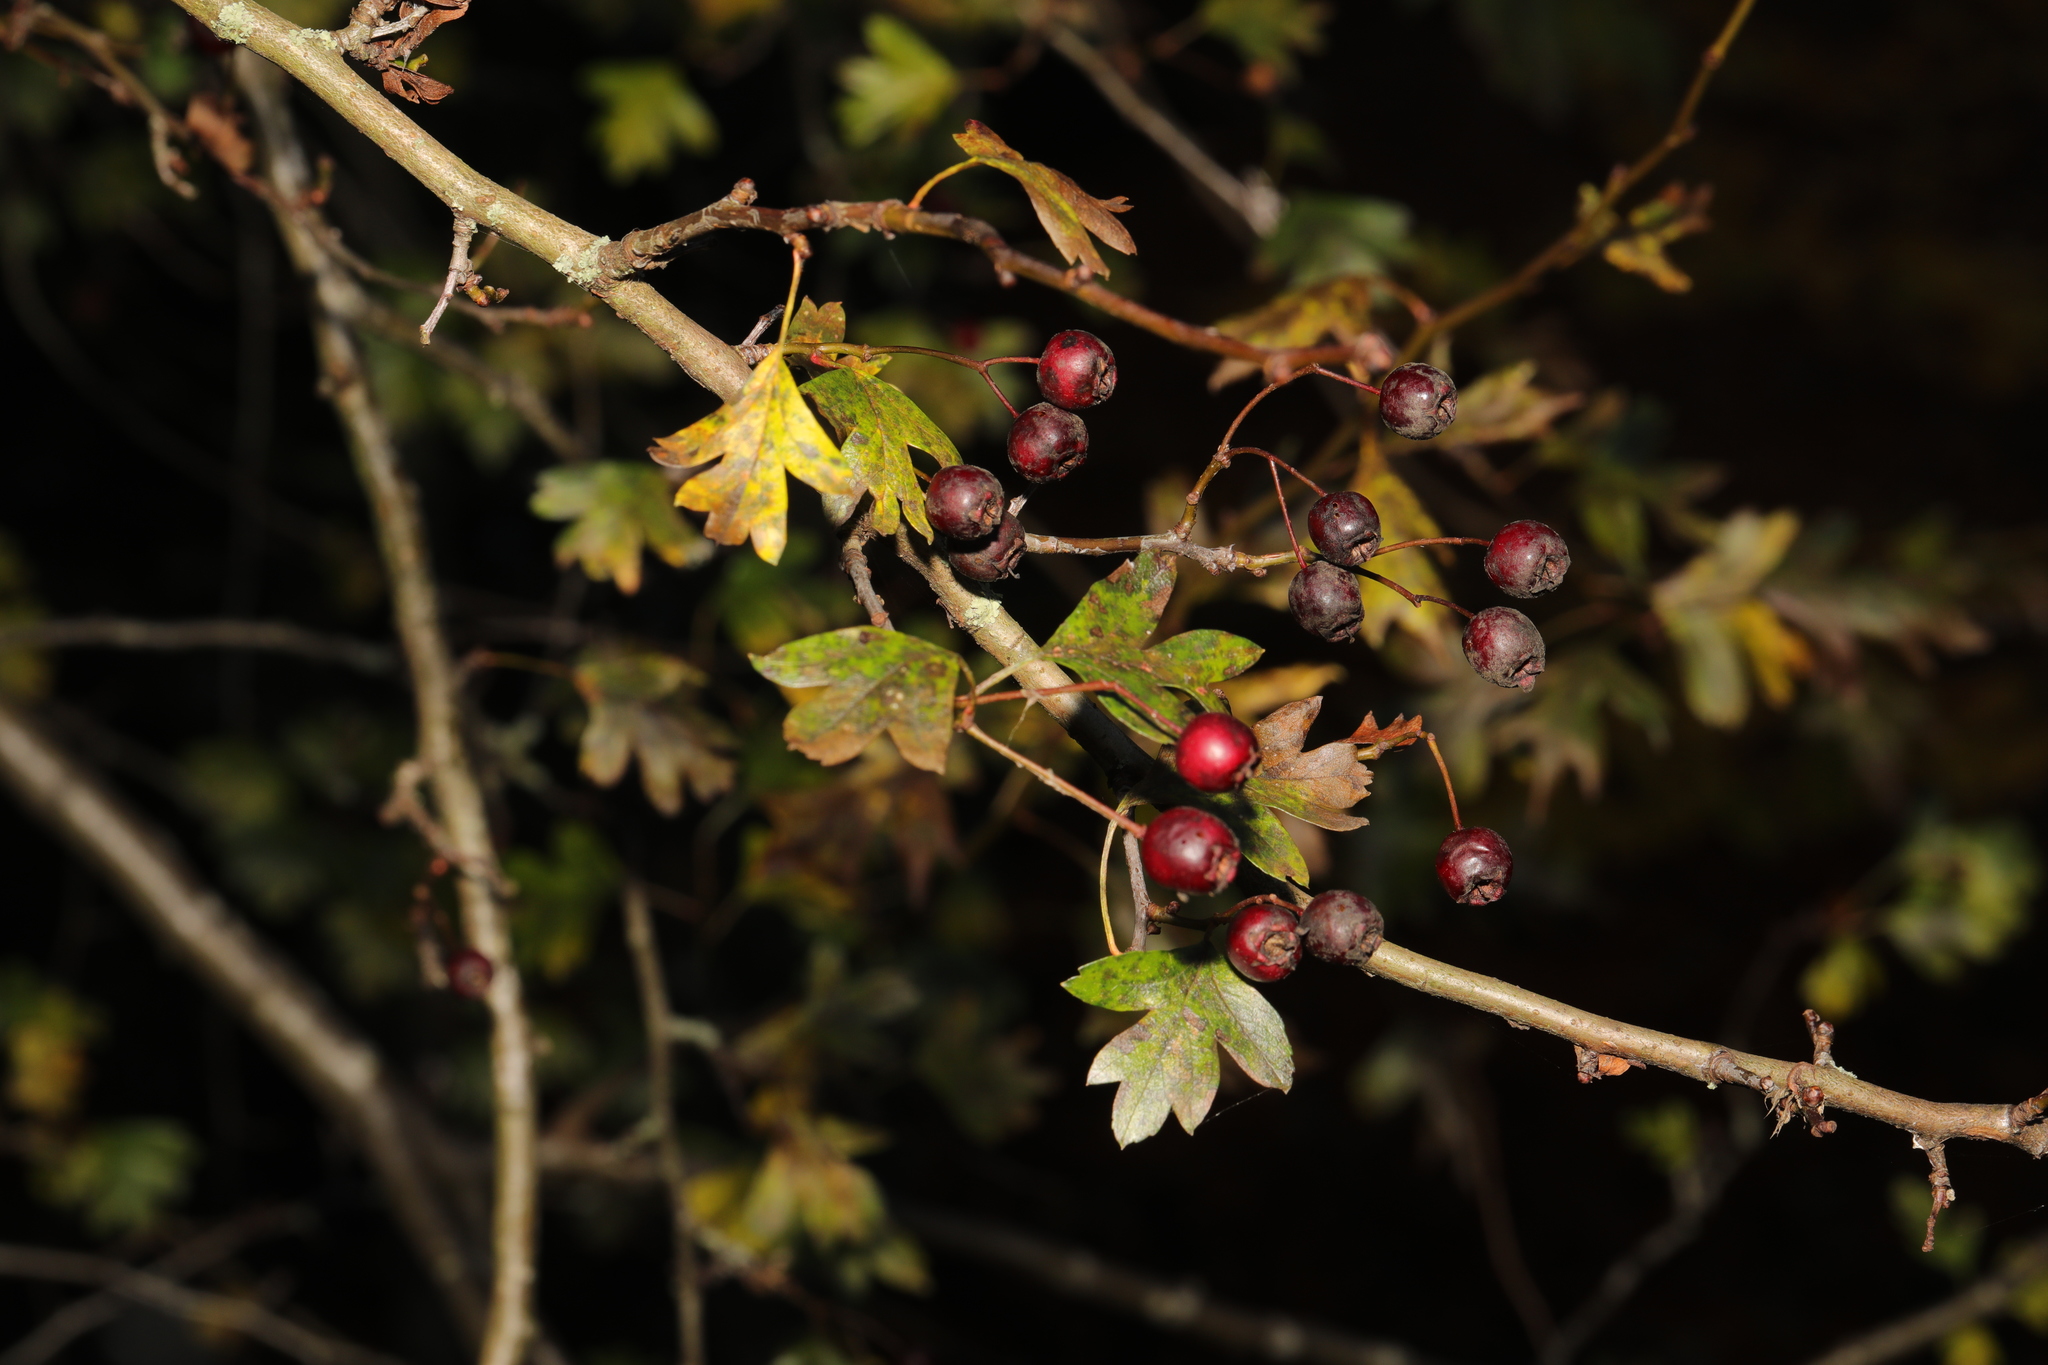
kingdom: Plantae
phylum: Tracheophyta
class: Magnoliopsida
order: Rosales
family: Rosaceae
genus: Crataegus
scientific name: Crataegus monogyna
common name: Hawthorn
